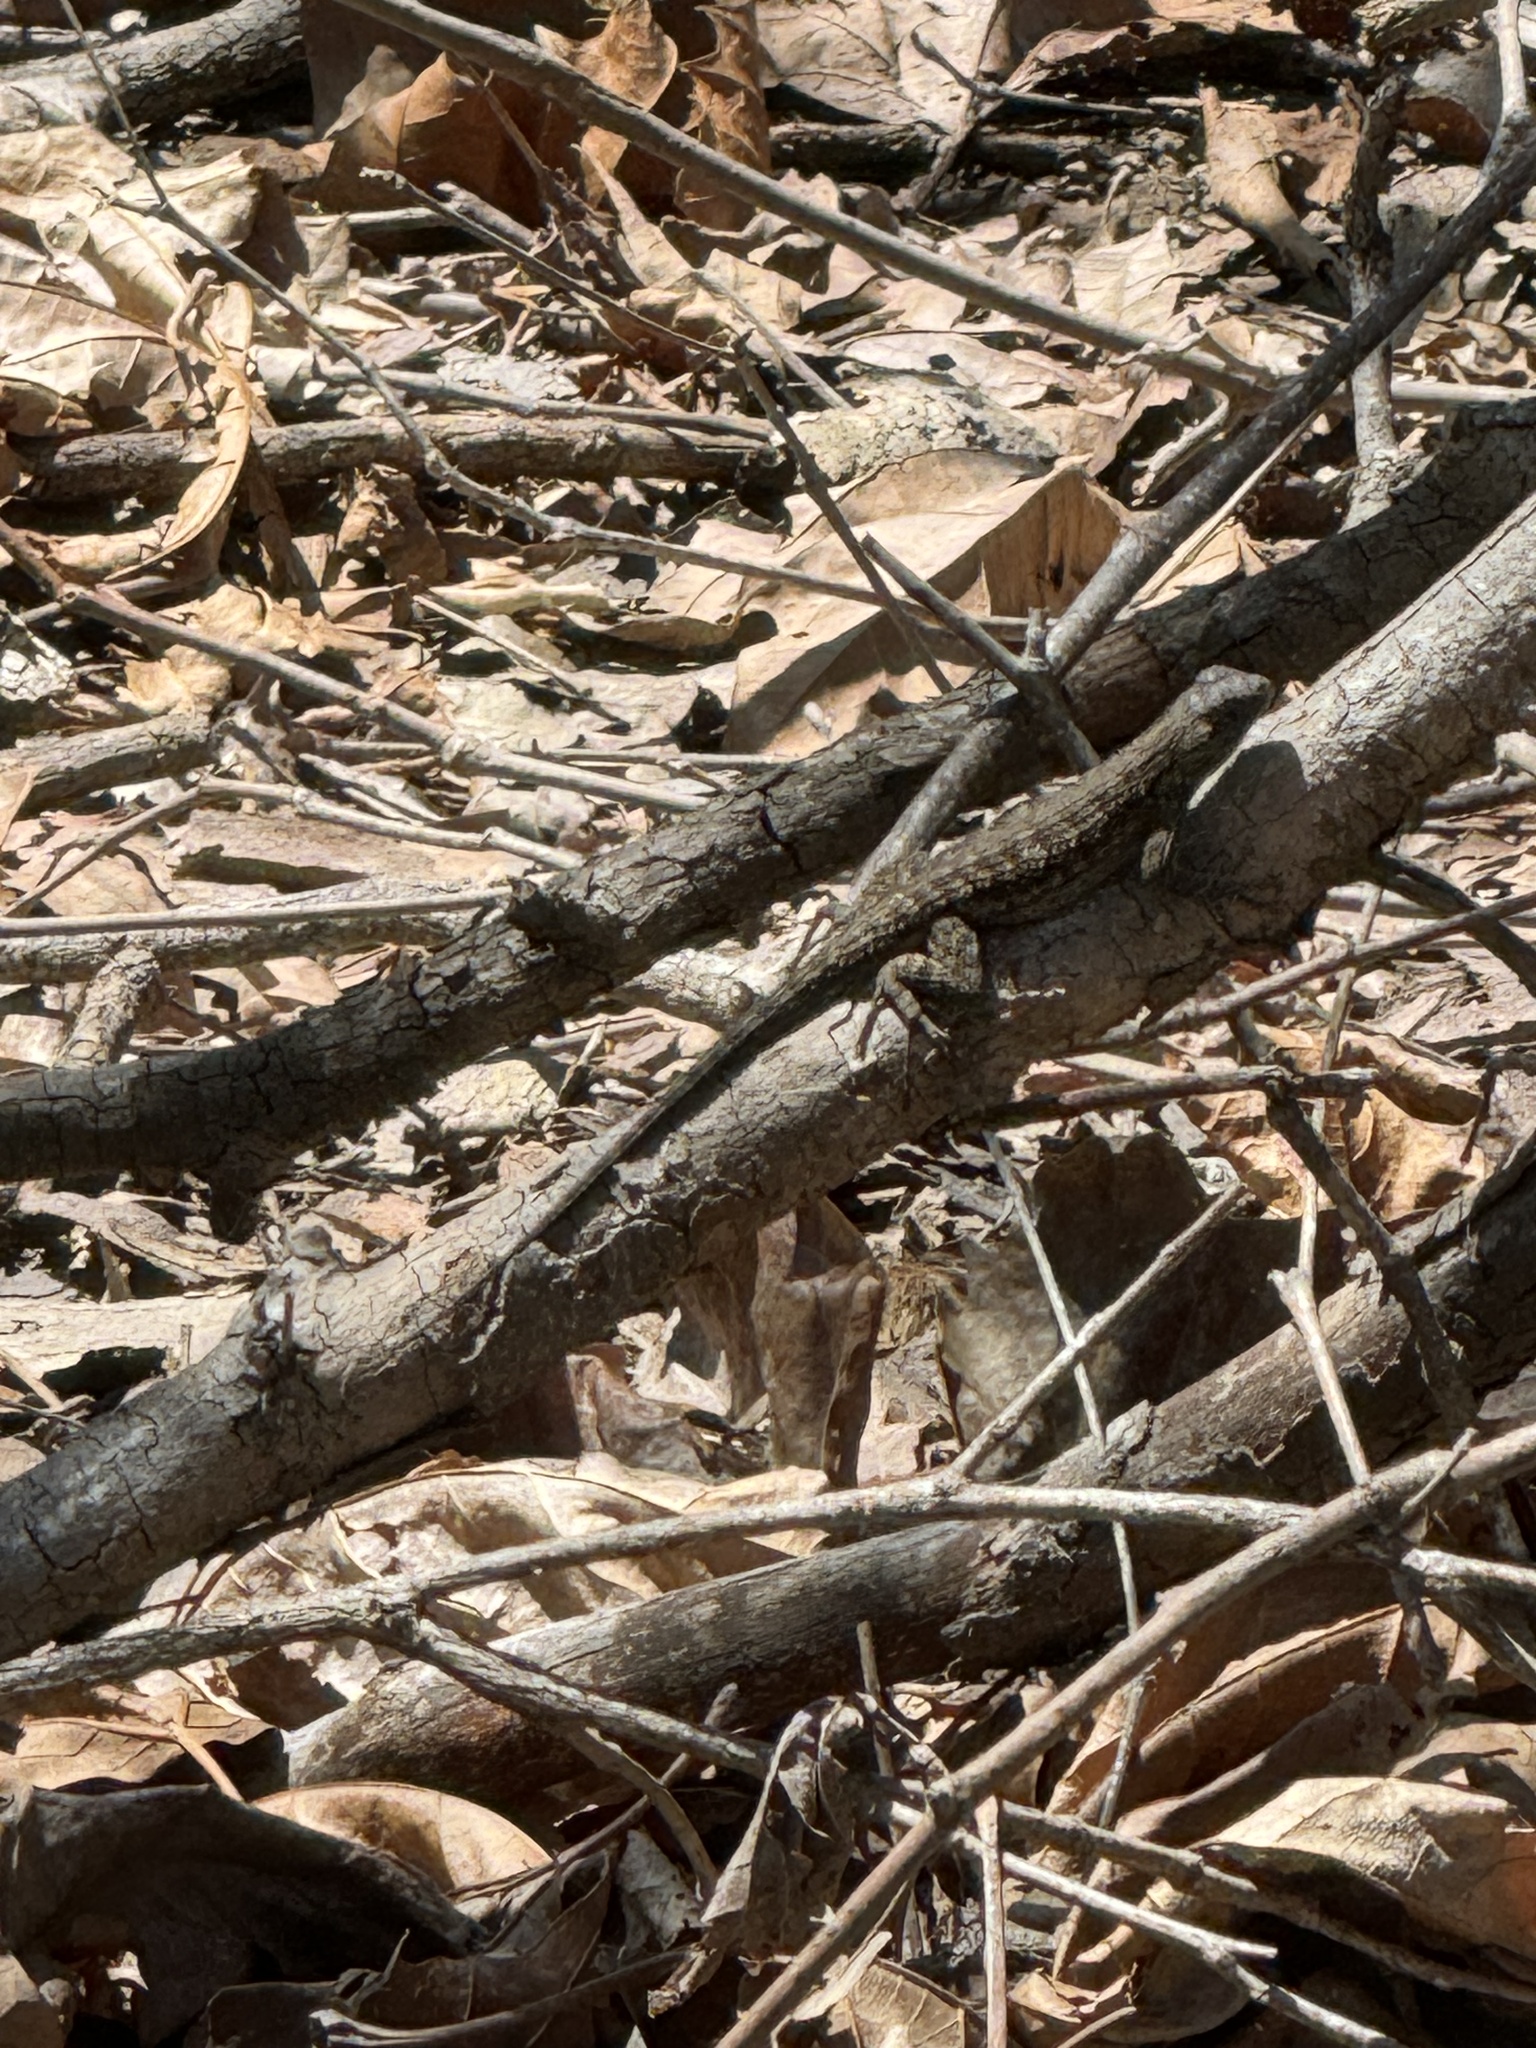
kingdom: Animalia
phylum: Chordata
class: Squamata
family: Phrynosomatidae
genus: Sceloporus
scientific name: Sceloporus occidentalis
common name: Western fence lizard
